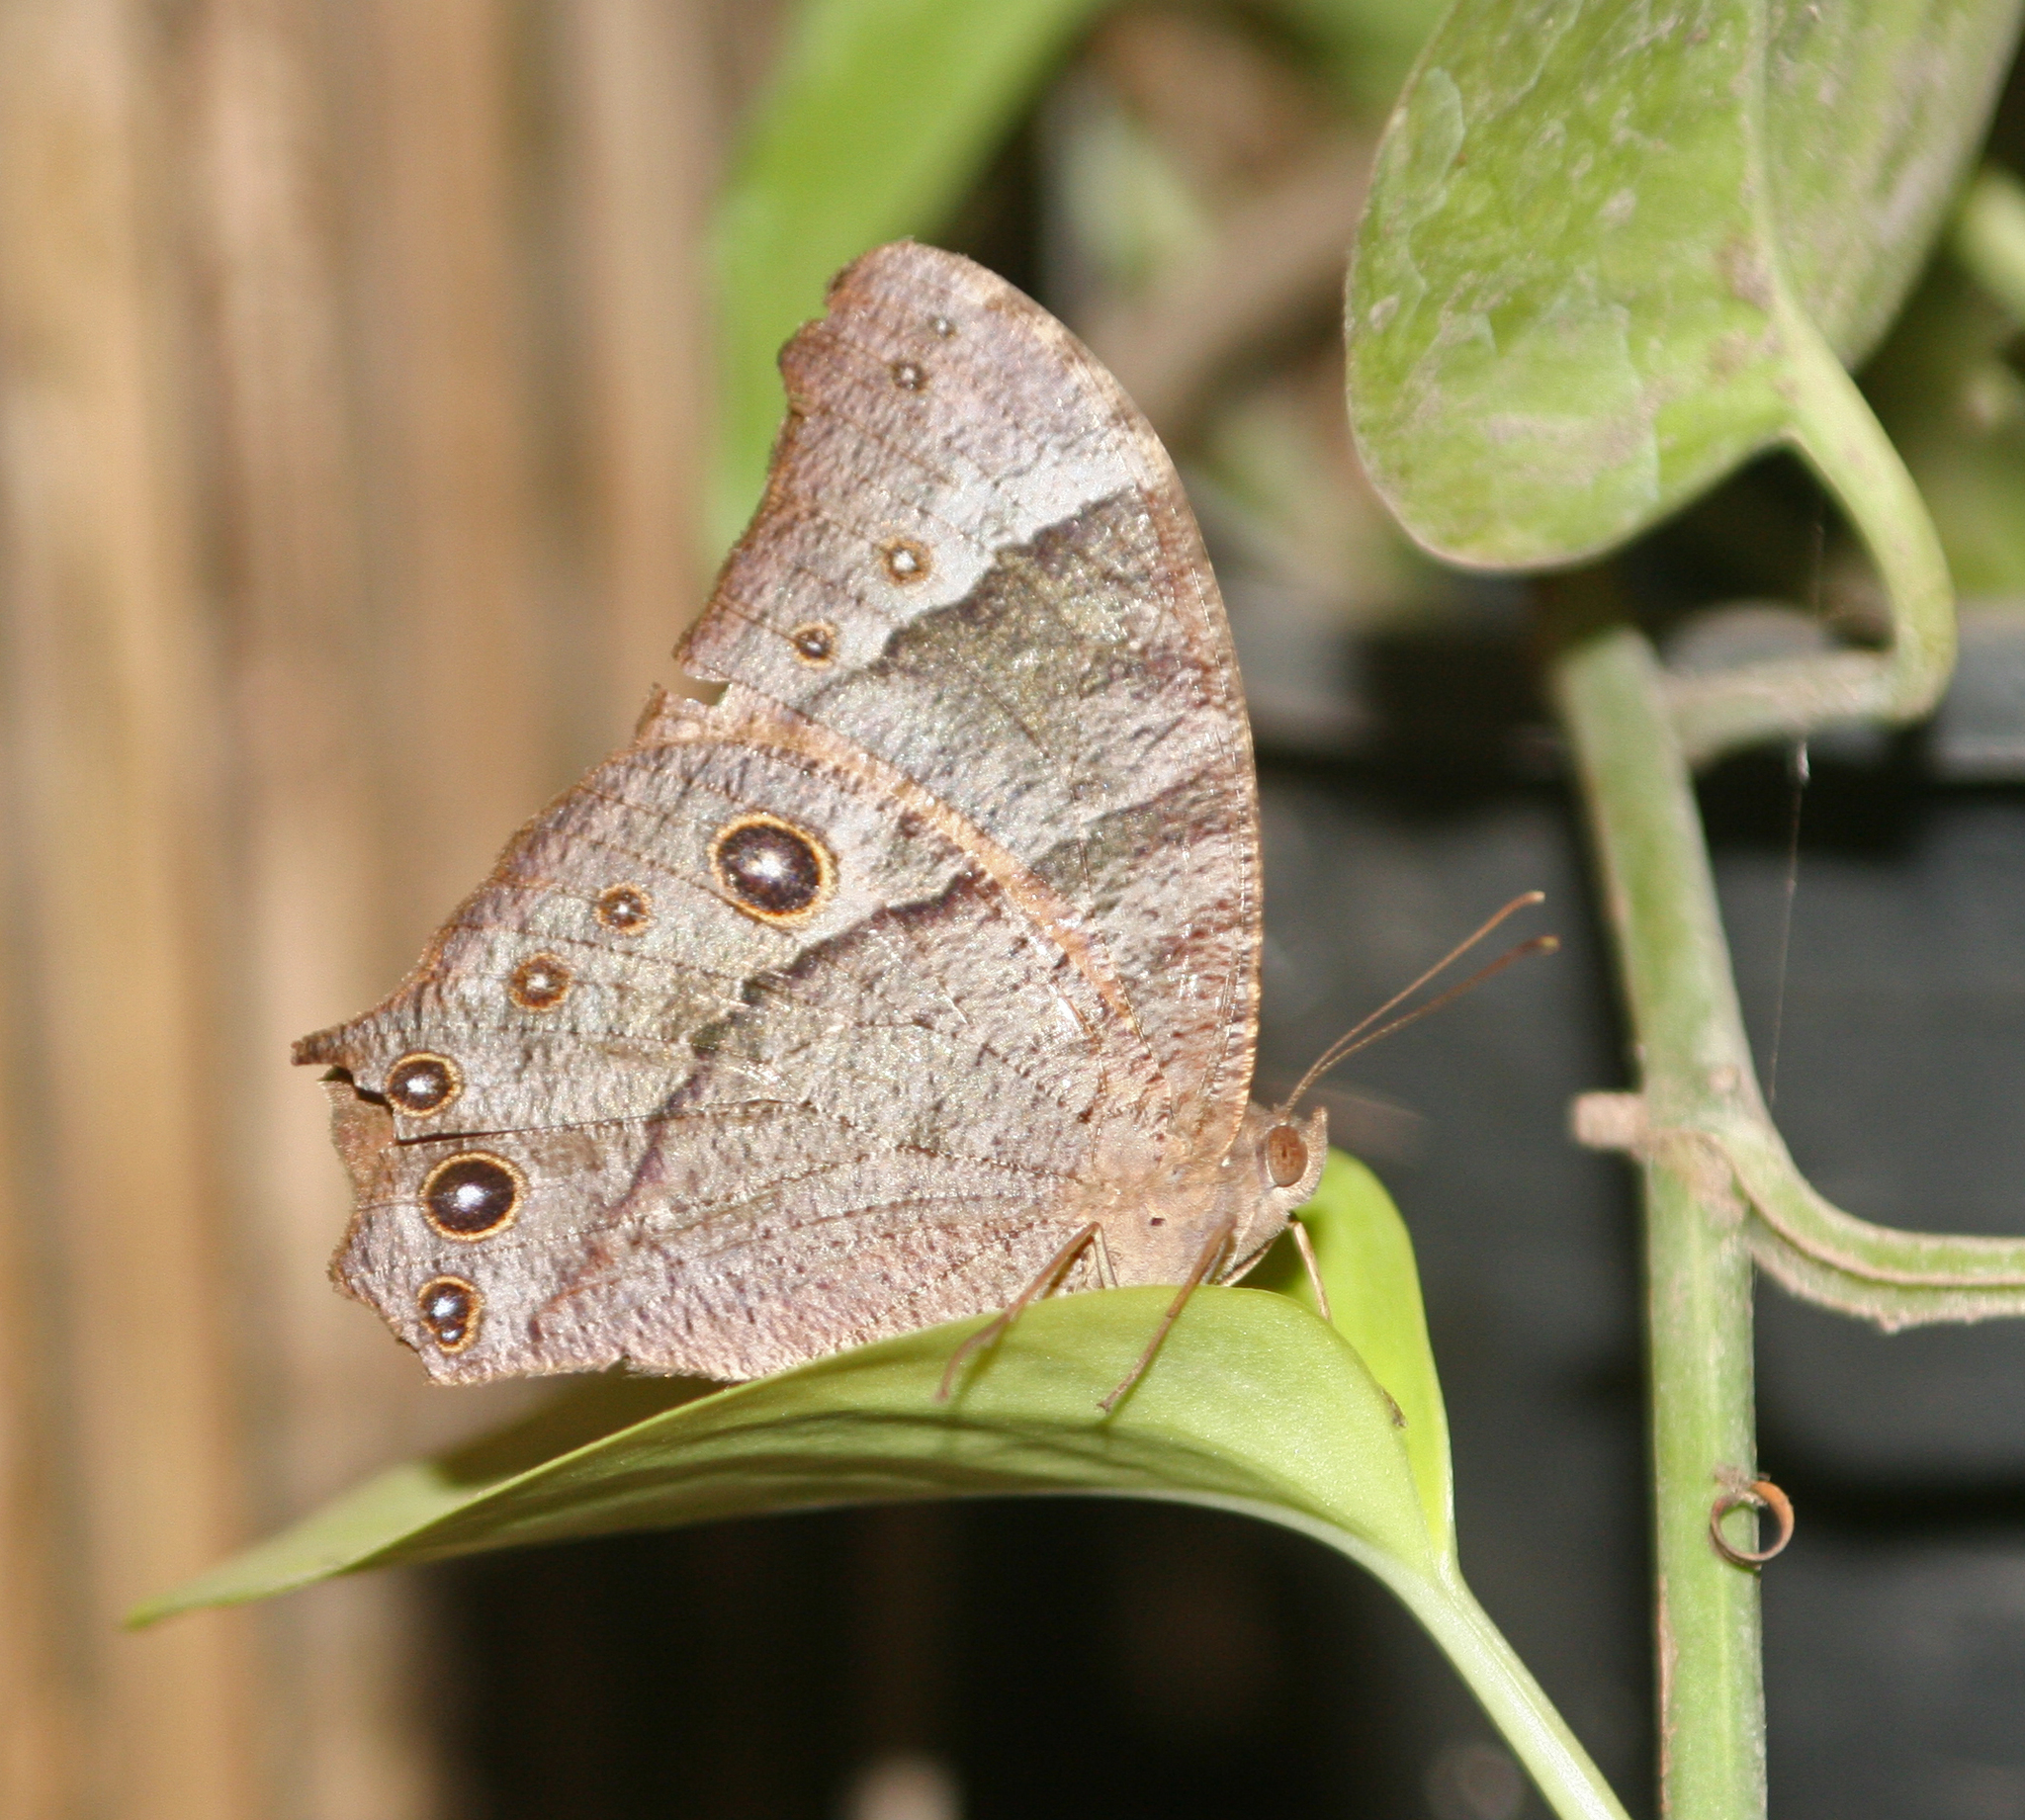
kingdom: Animalia
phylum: Arthropoda
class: Insecta
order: Lepidoptera
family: Nymphalidae
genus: Melanitis
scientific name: Melanitis leda
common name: Twilight brown
